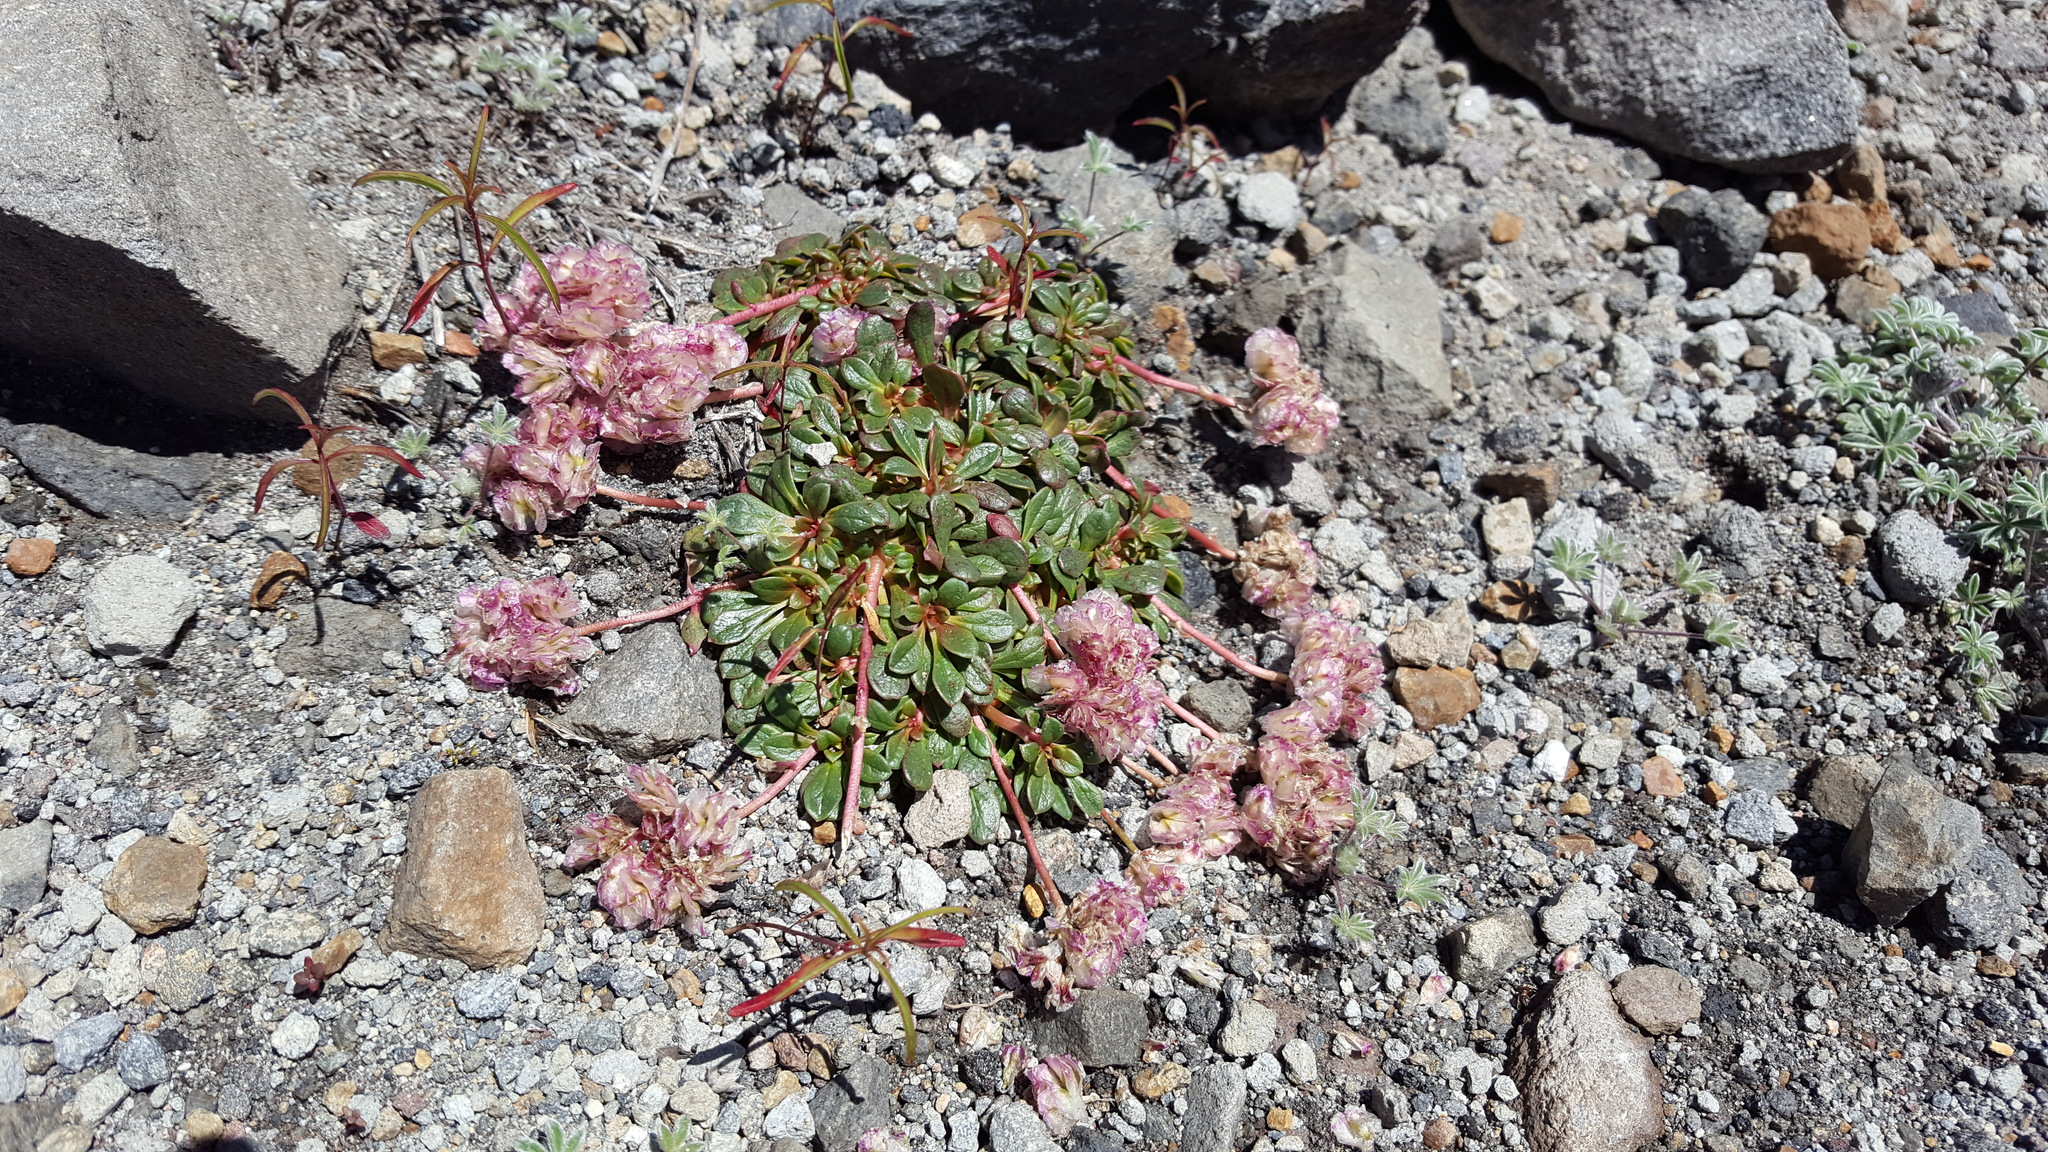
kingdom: Plantae
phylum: Tracheophyta
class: Magnoliopsida
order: Caryophyllales
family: Montiaceae
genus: Calyptridium
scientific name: Calyptridium umbellatum
